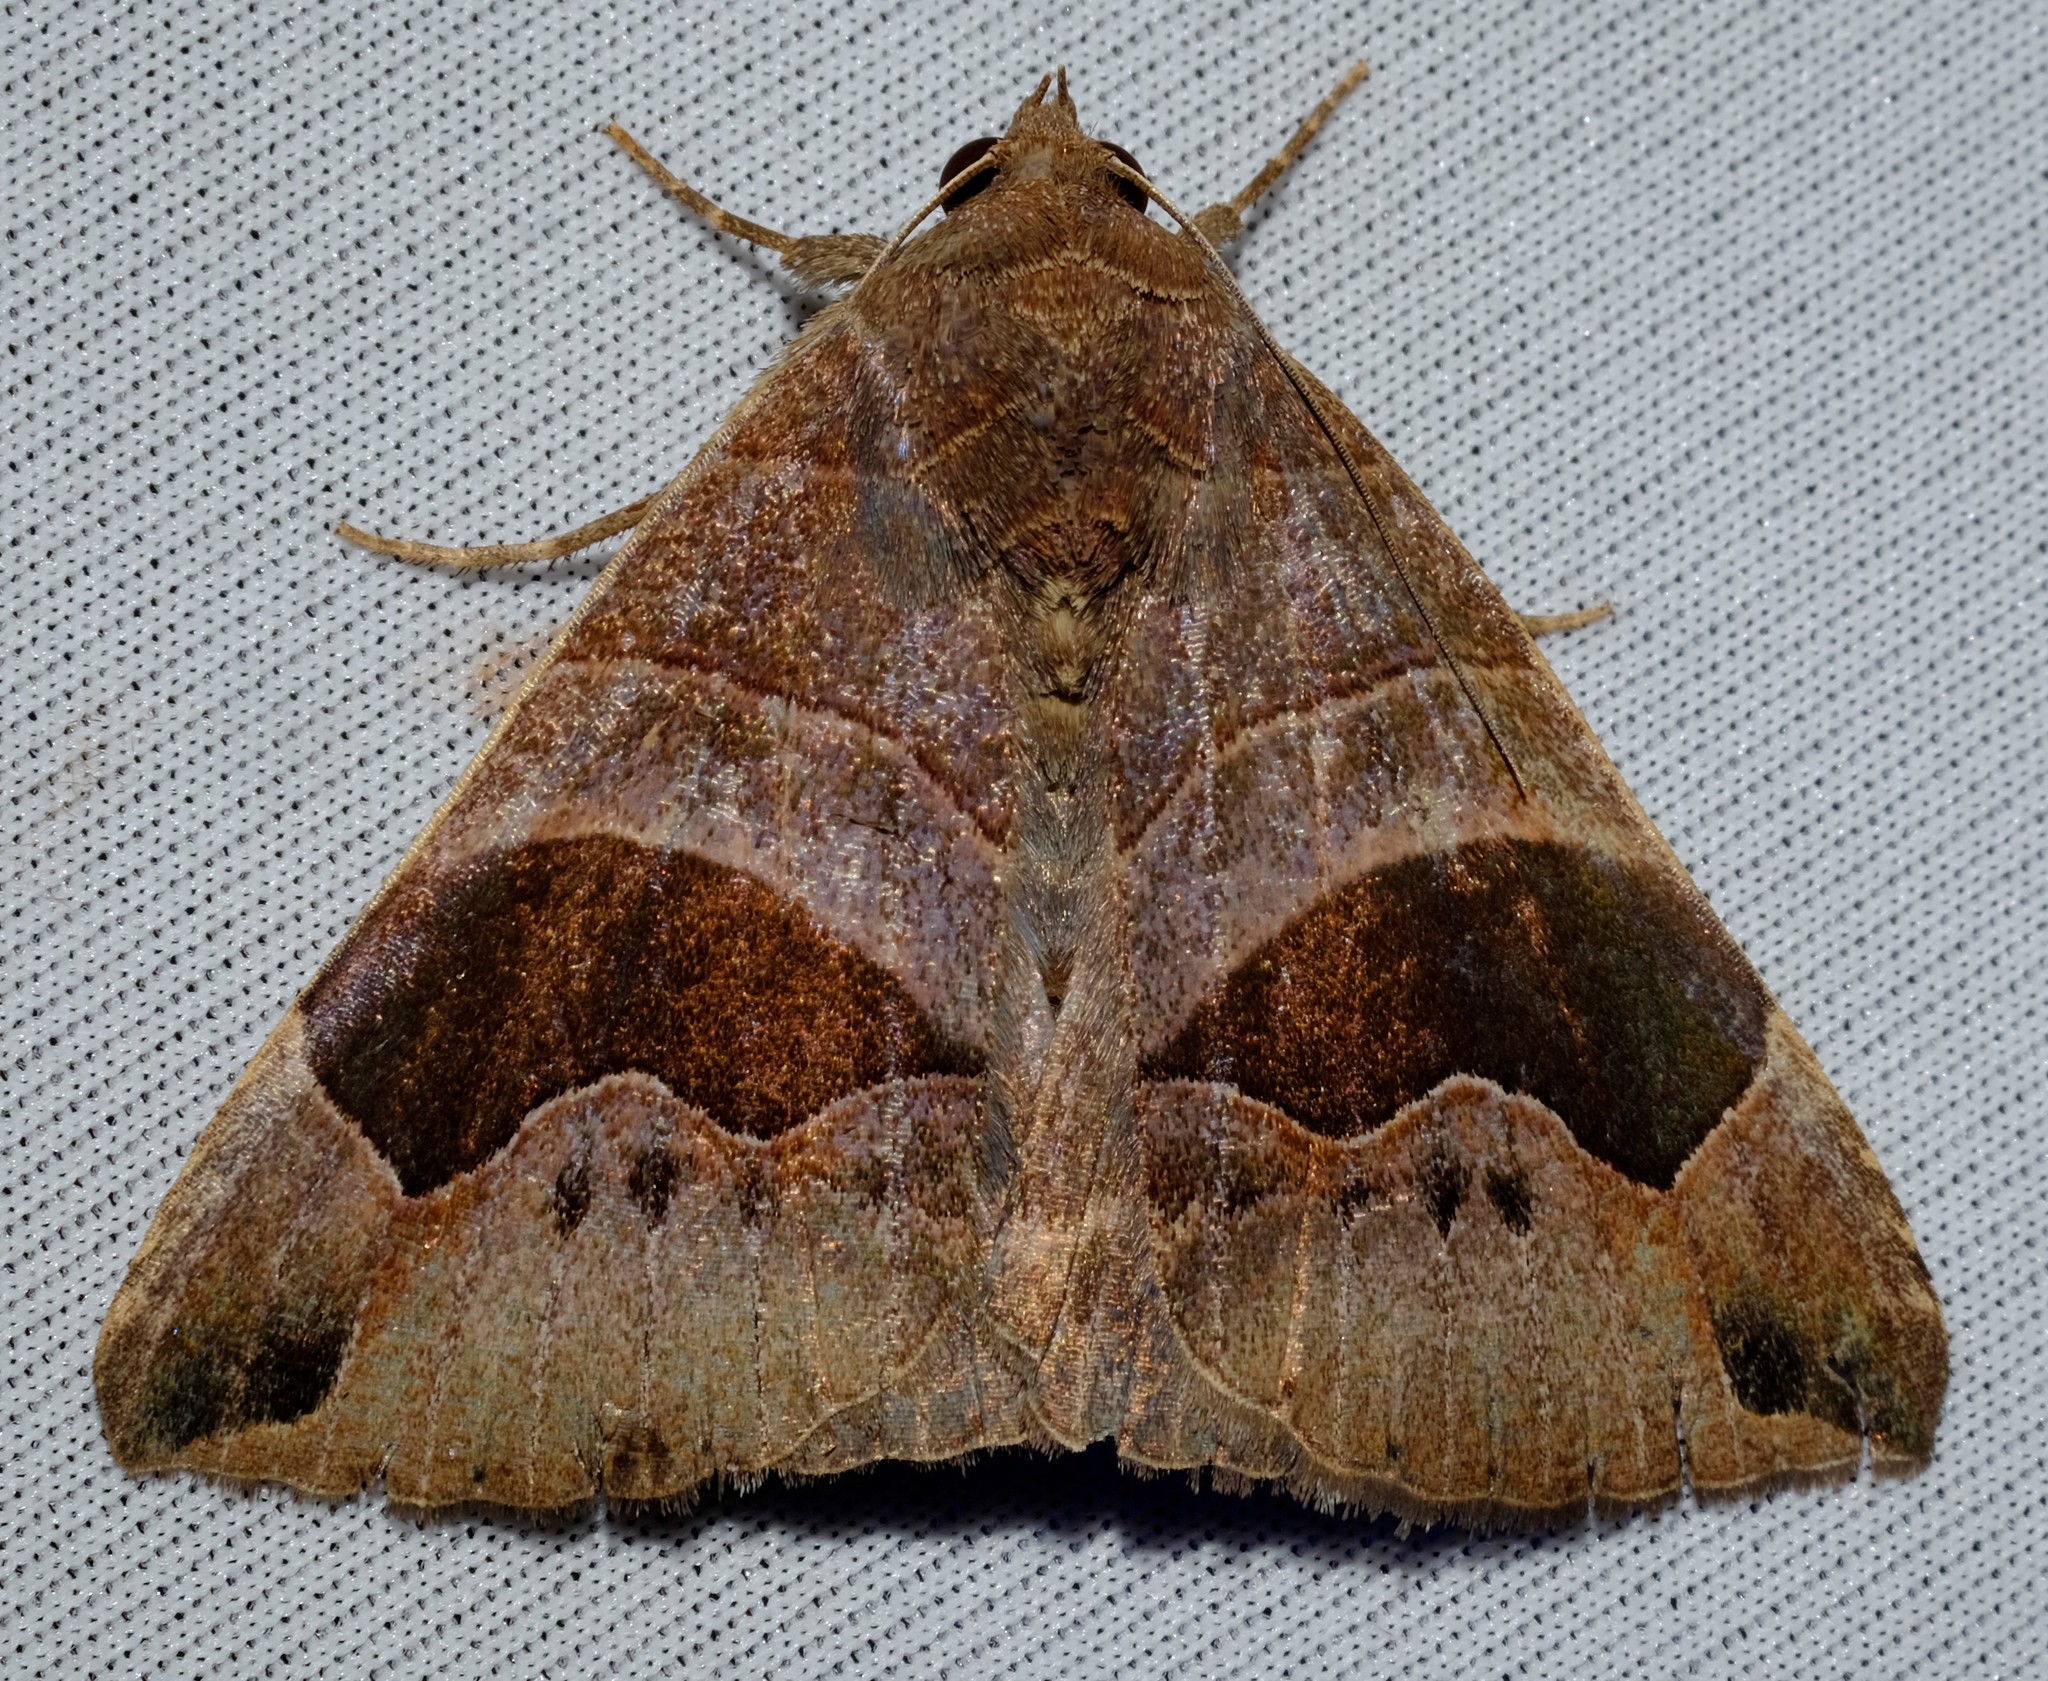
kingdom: Animalia
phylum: Arthropoda
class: Insecta
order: Lepidoptera
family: Erebidae
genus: Bastilla
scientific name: Bastilla solomonensis
